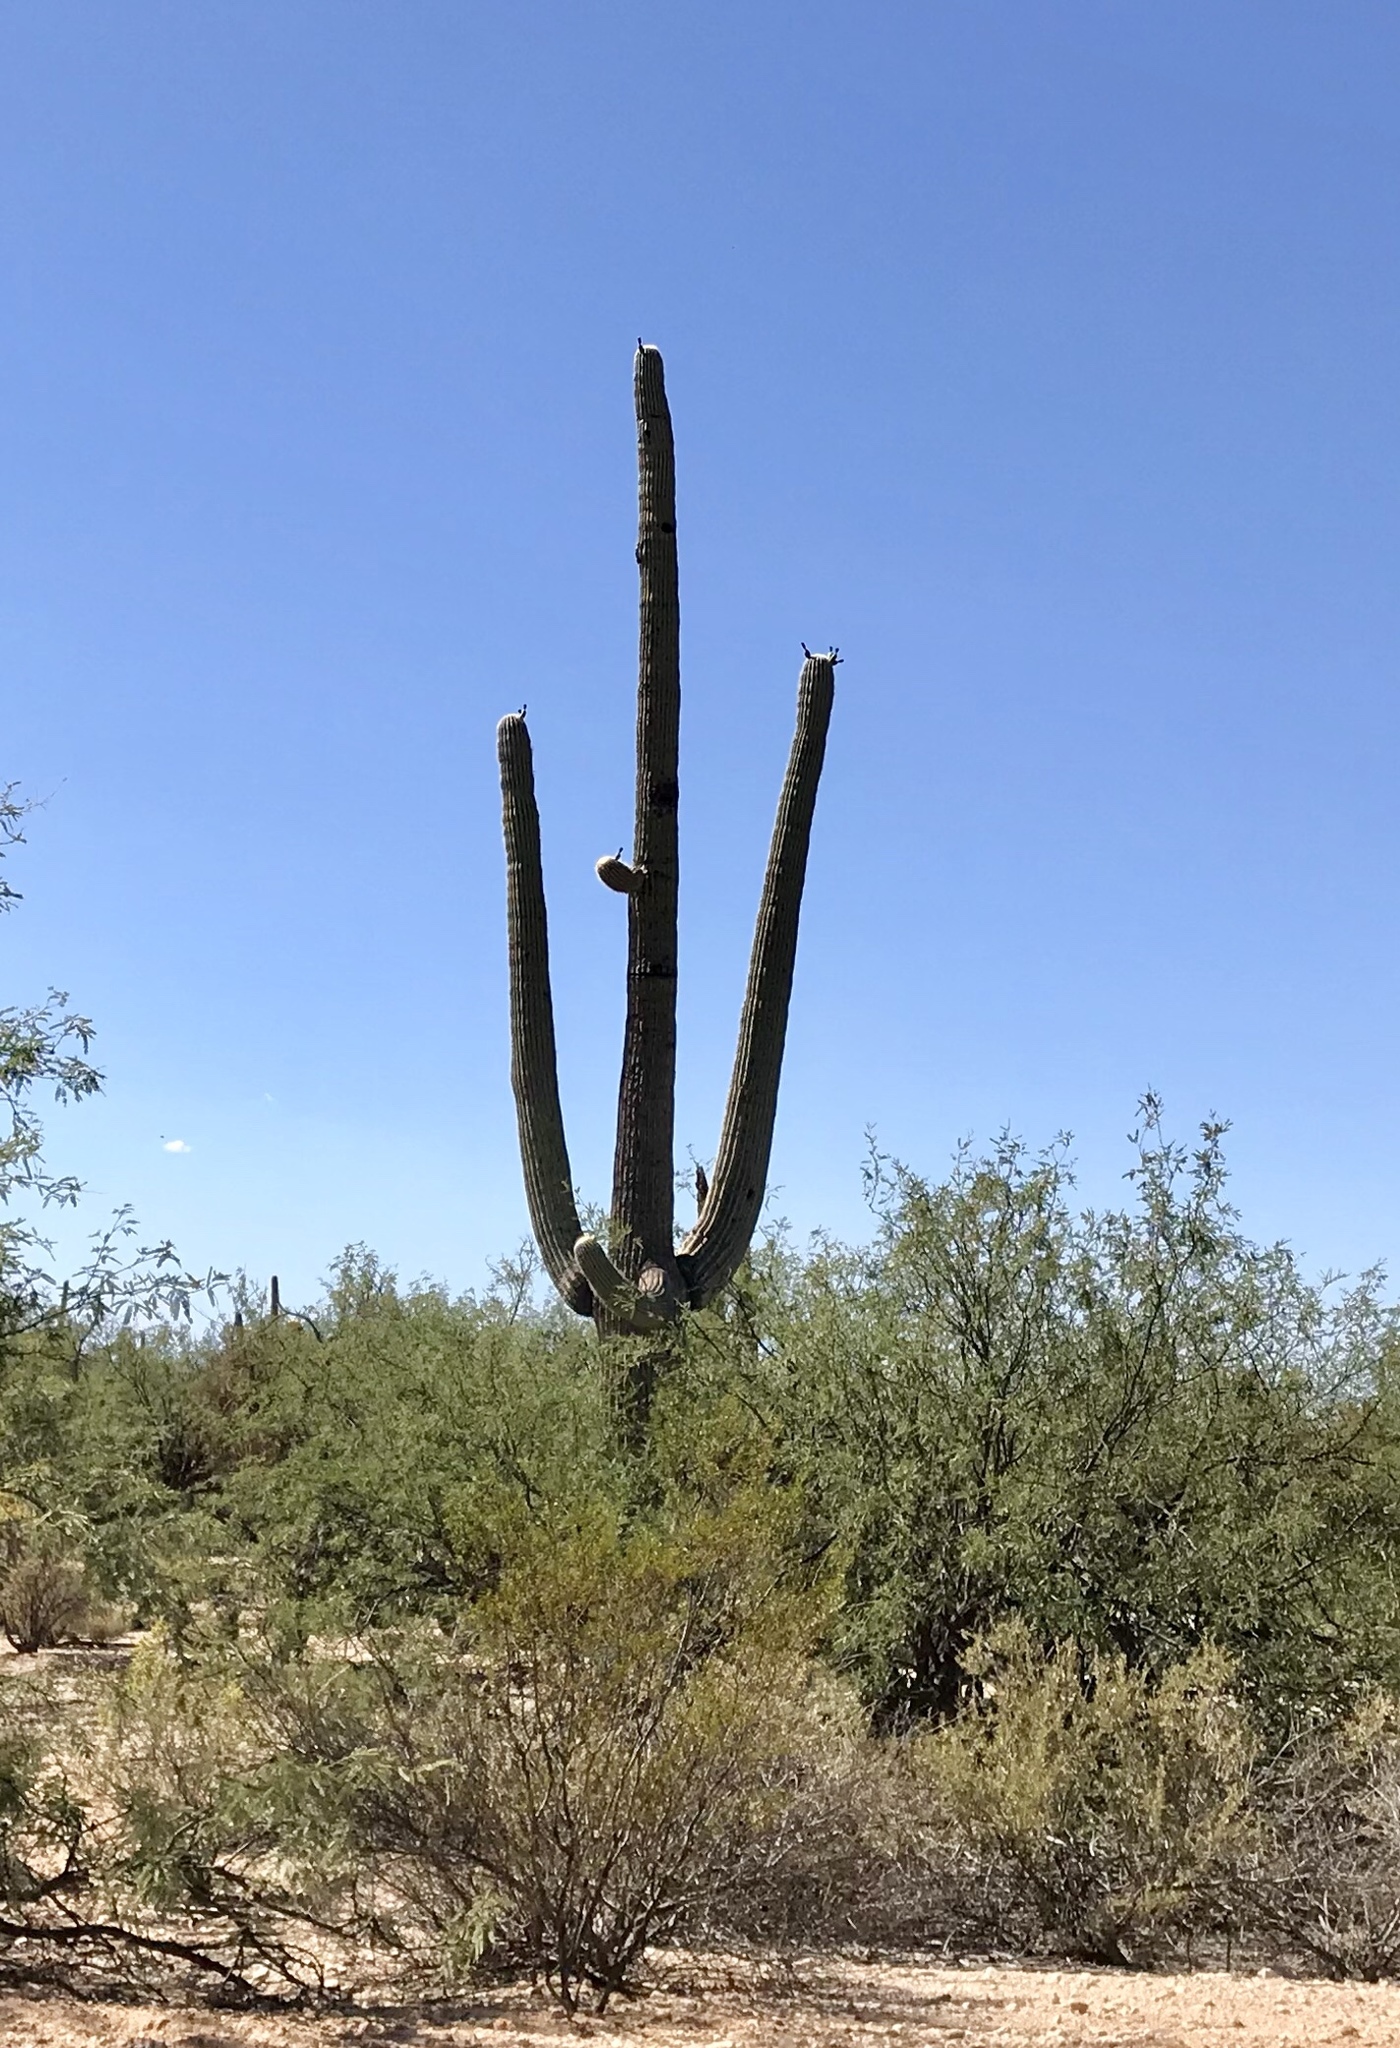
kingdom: Plantae
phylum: Tracheophyta
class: Magnoliopsida
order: Caryophyllales
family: Cactaceae
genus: Carnegiea
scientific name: Carnegiea gigantea
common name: Saguaro
